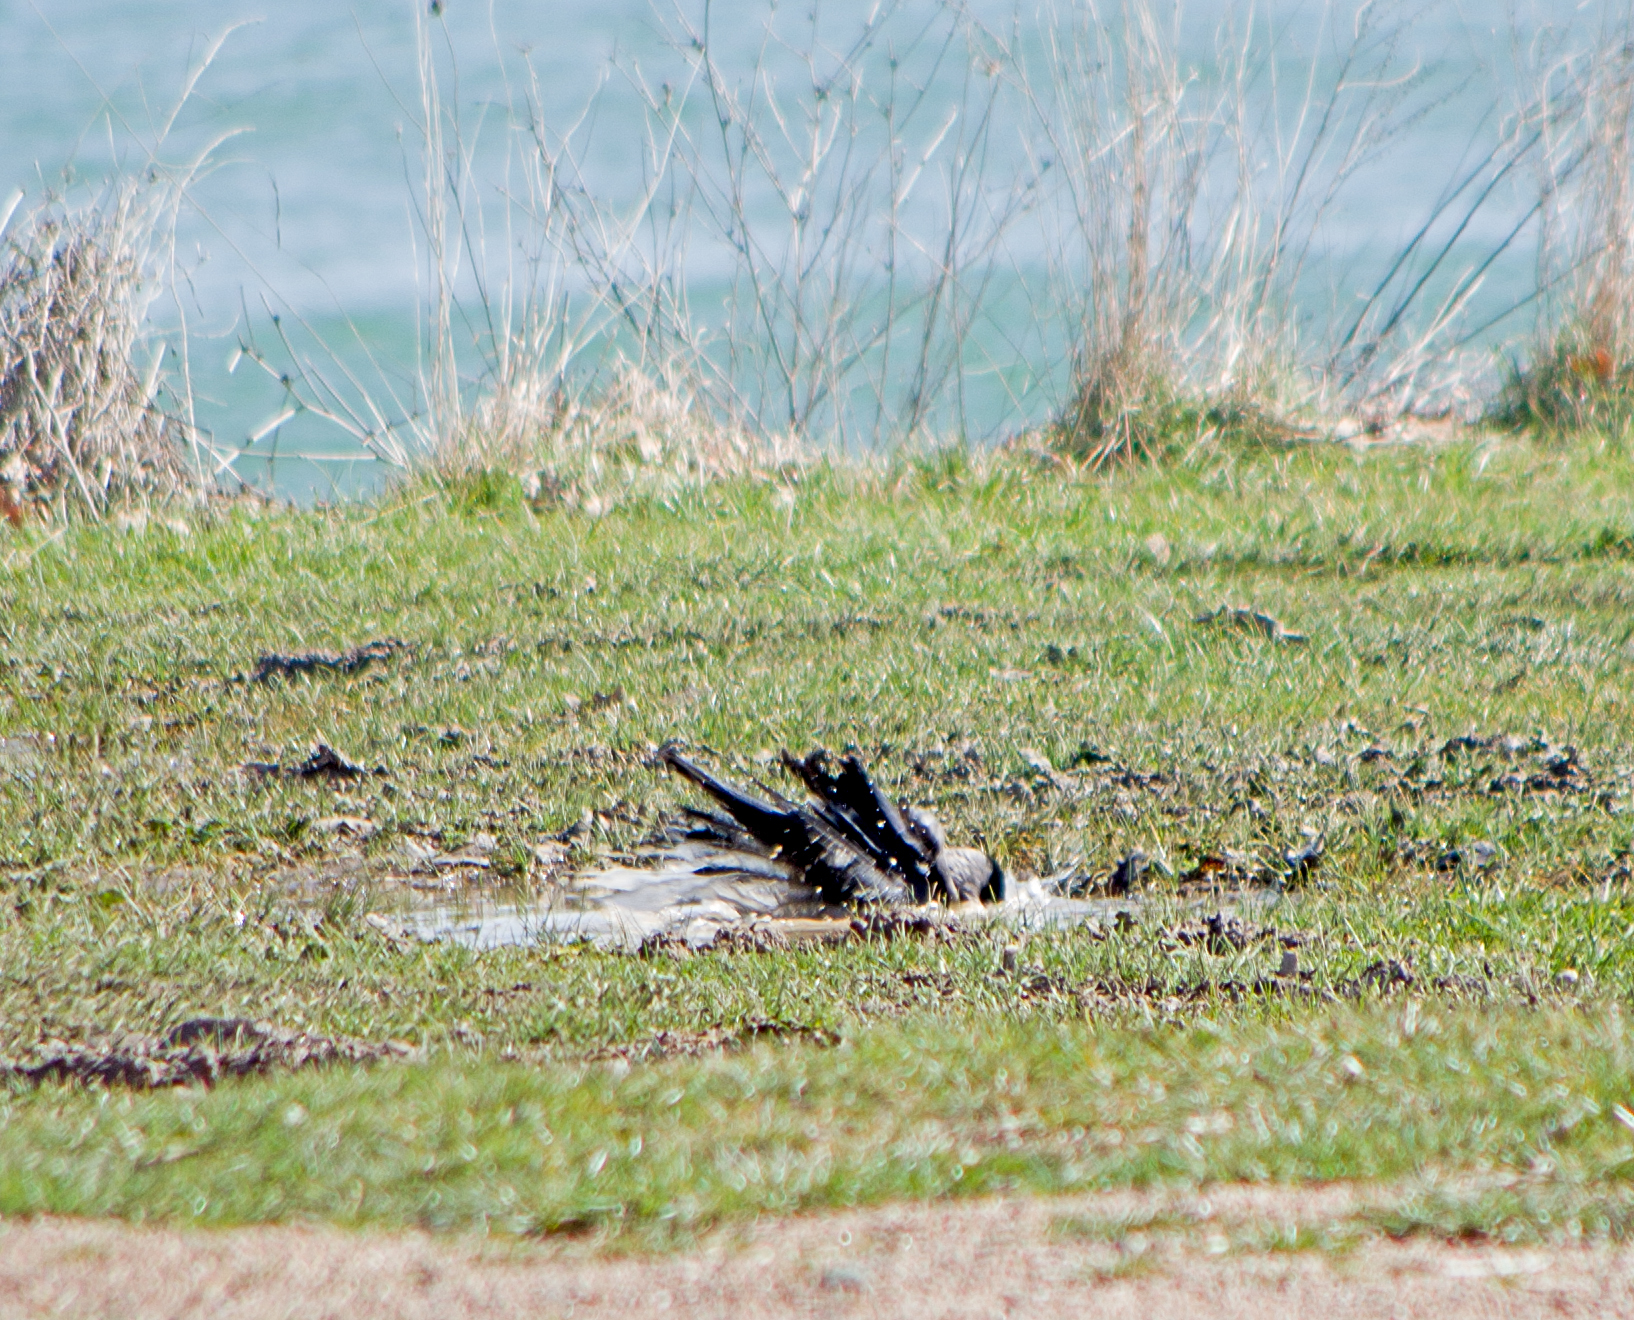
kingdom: Animalia
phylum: Chordata
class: Aves
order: Passeriformes
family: Corvidae
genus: Corvus
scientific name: Corvus cornix
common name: Hooded crow
